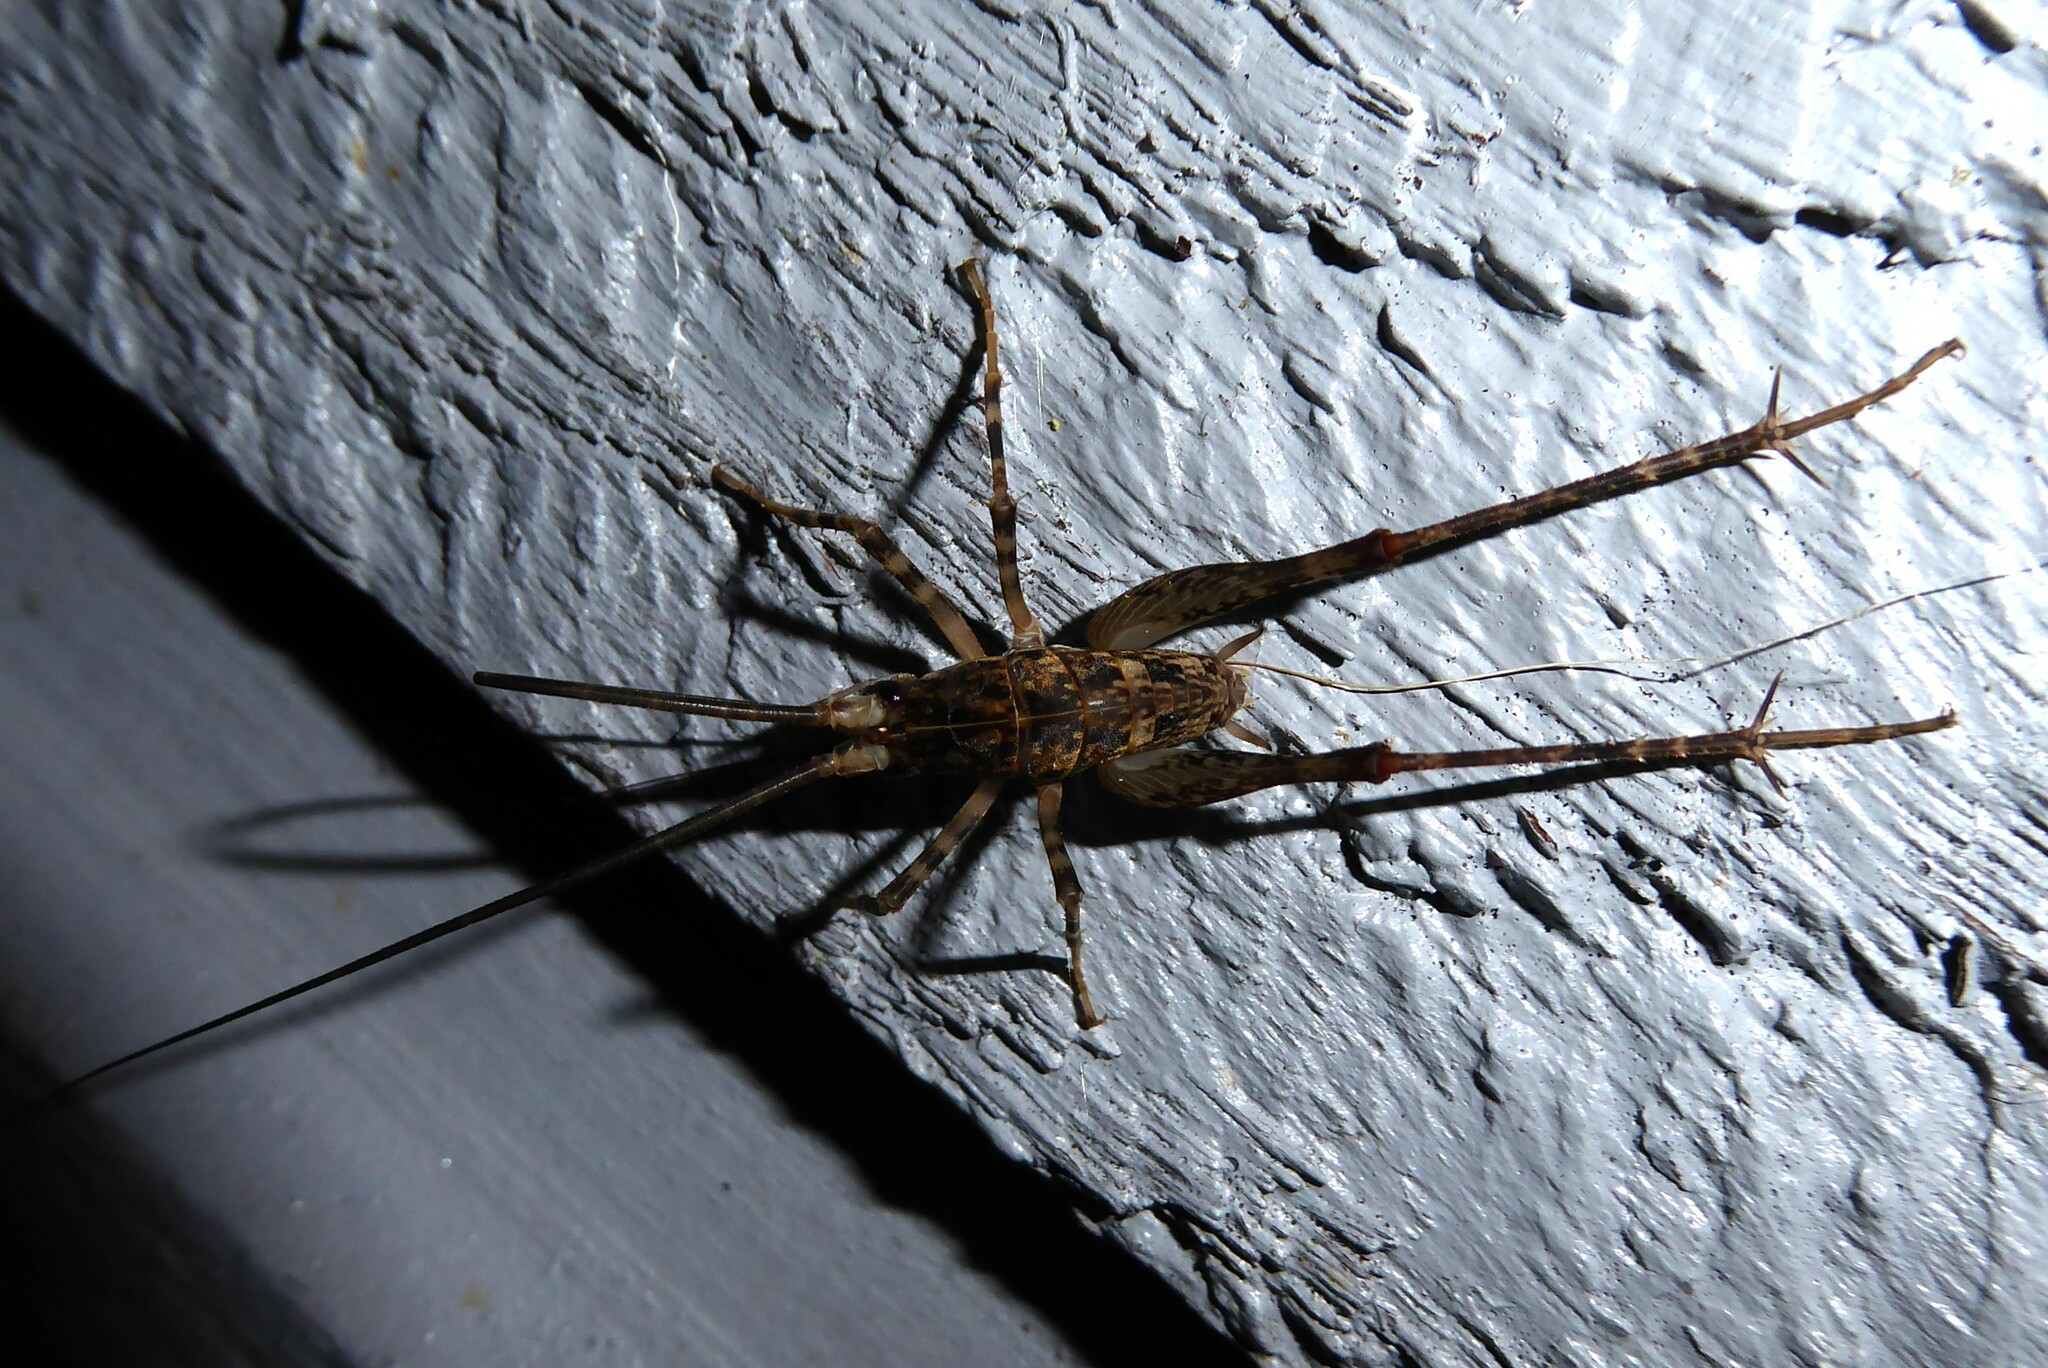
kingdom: Animalia
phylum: Arthropoda
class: Insecta
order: Orthoptera
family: Rhaphidophoridae
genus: Pleioplectron
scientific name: Pleioplectron simplex
